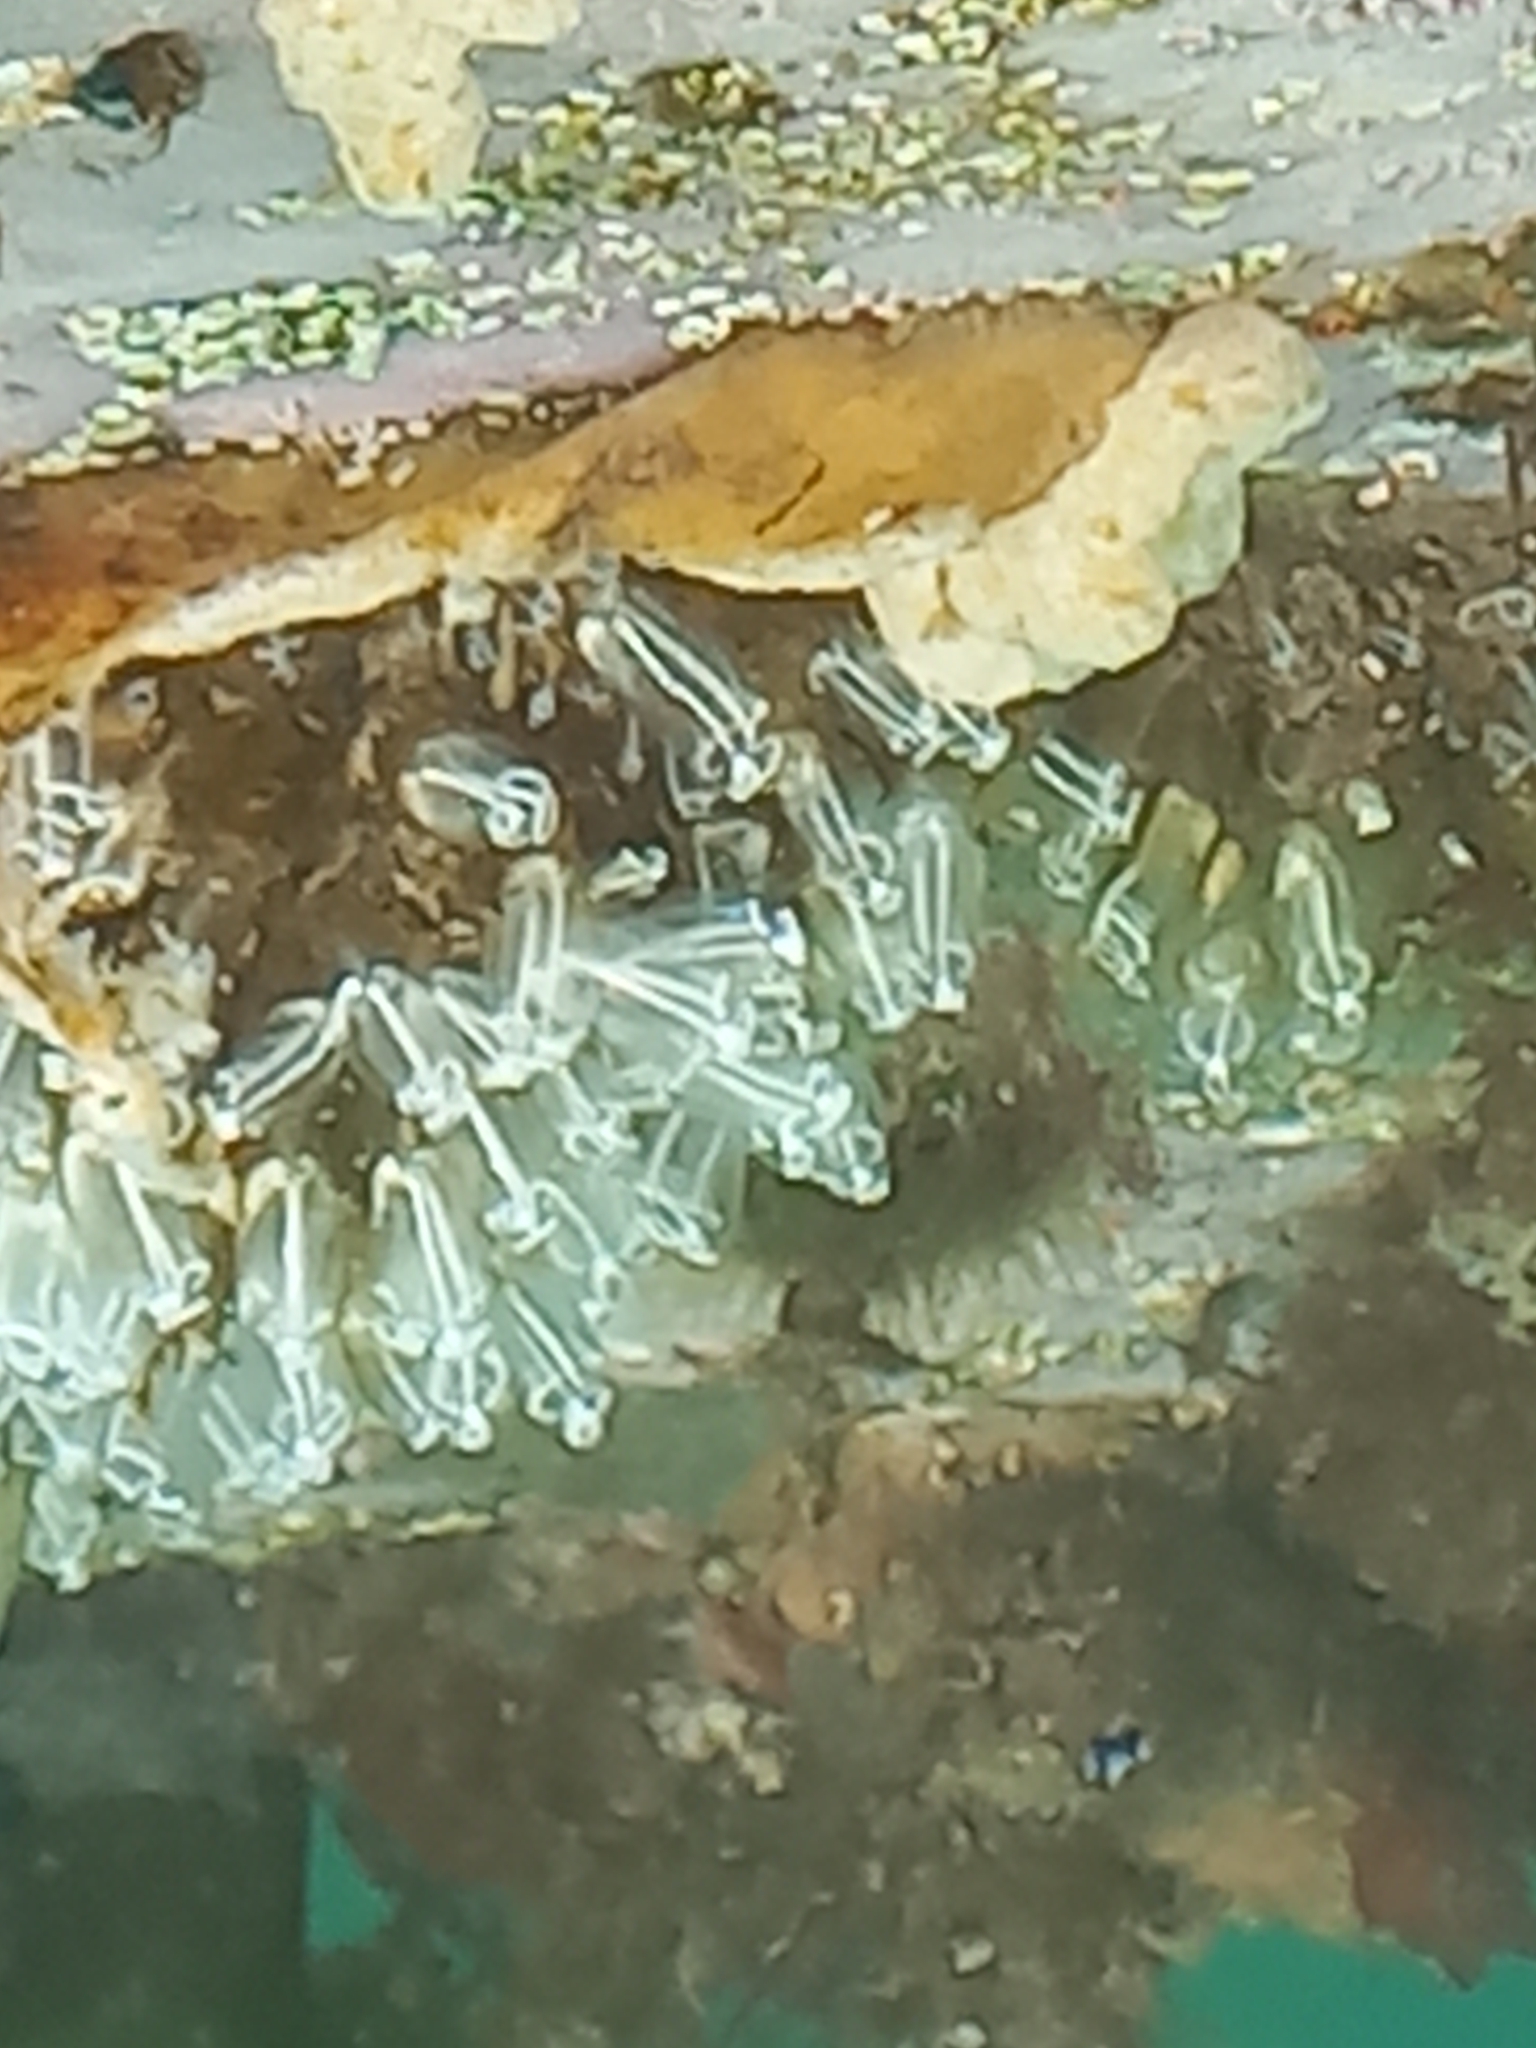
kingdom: Animalia
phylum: Chordata
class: Ascidiacea
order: Aplousobranchia
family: Clavelinidae
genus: Clavelina
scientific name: Clavelina lepadiformis
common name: Light bulb tunicate
